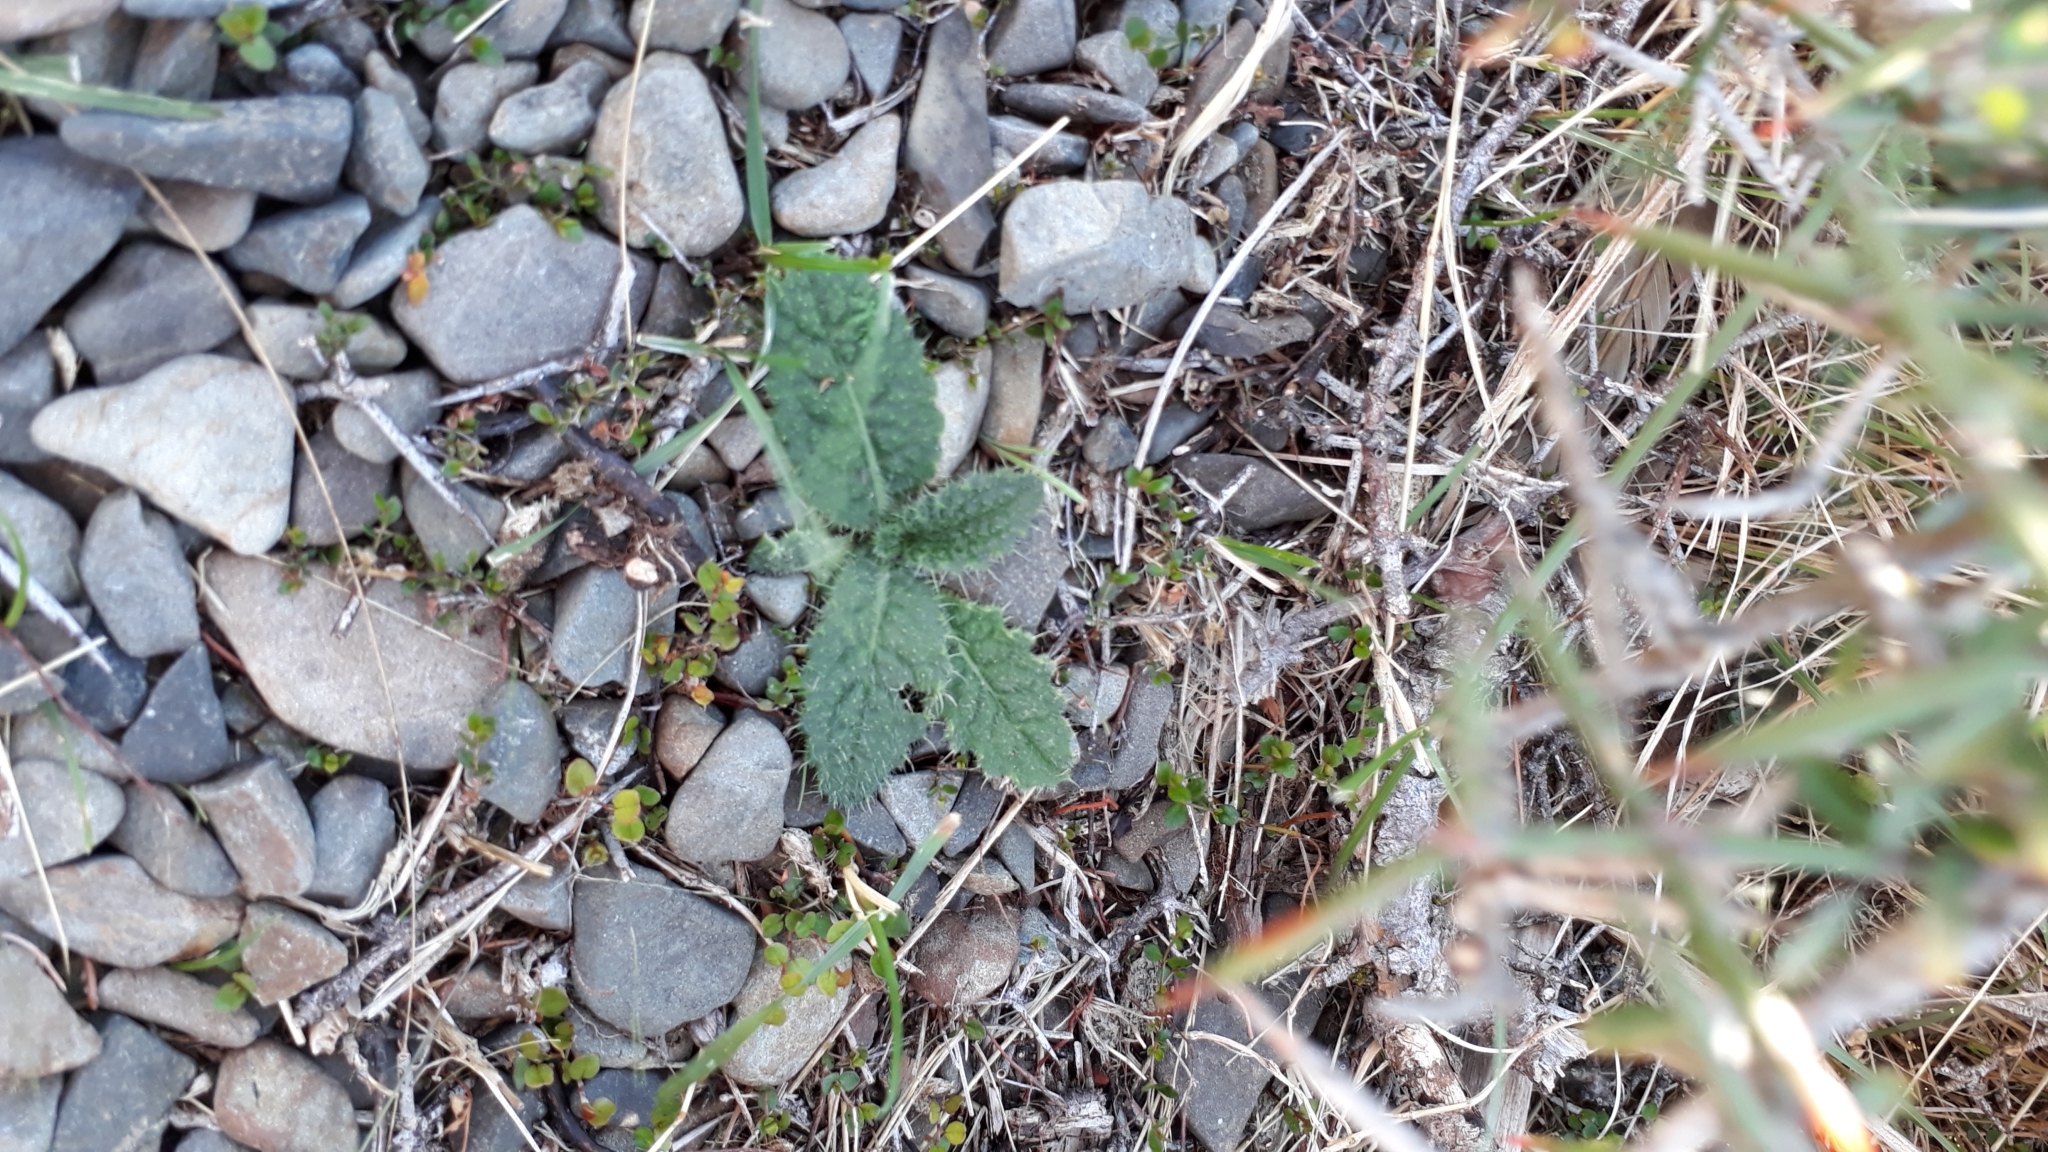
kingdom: Plantae
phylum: Tracheophyta
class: Magnoliopsida
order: Asterales
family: Asteraceae
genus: Cirsium
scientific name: Cirsium vulgare
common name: Bull thistle
